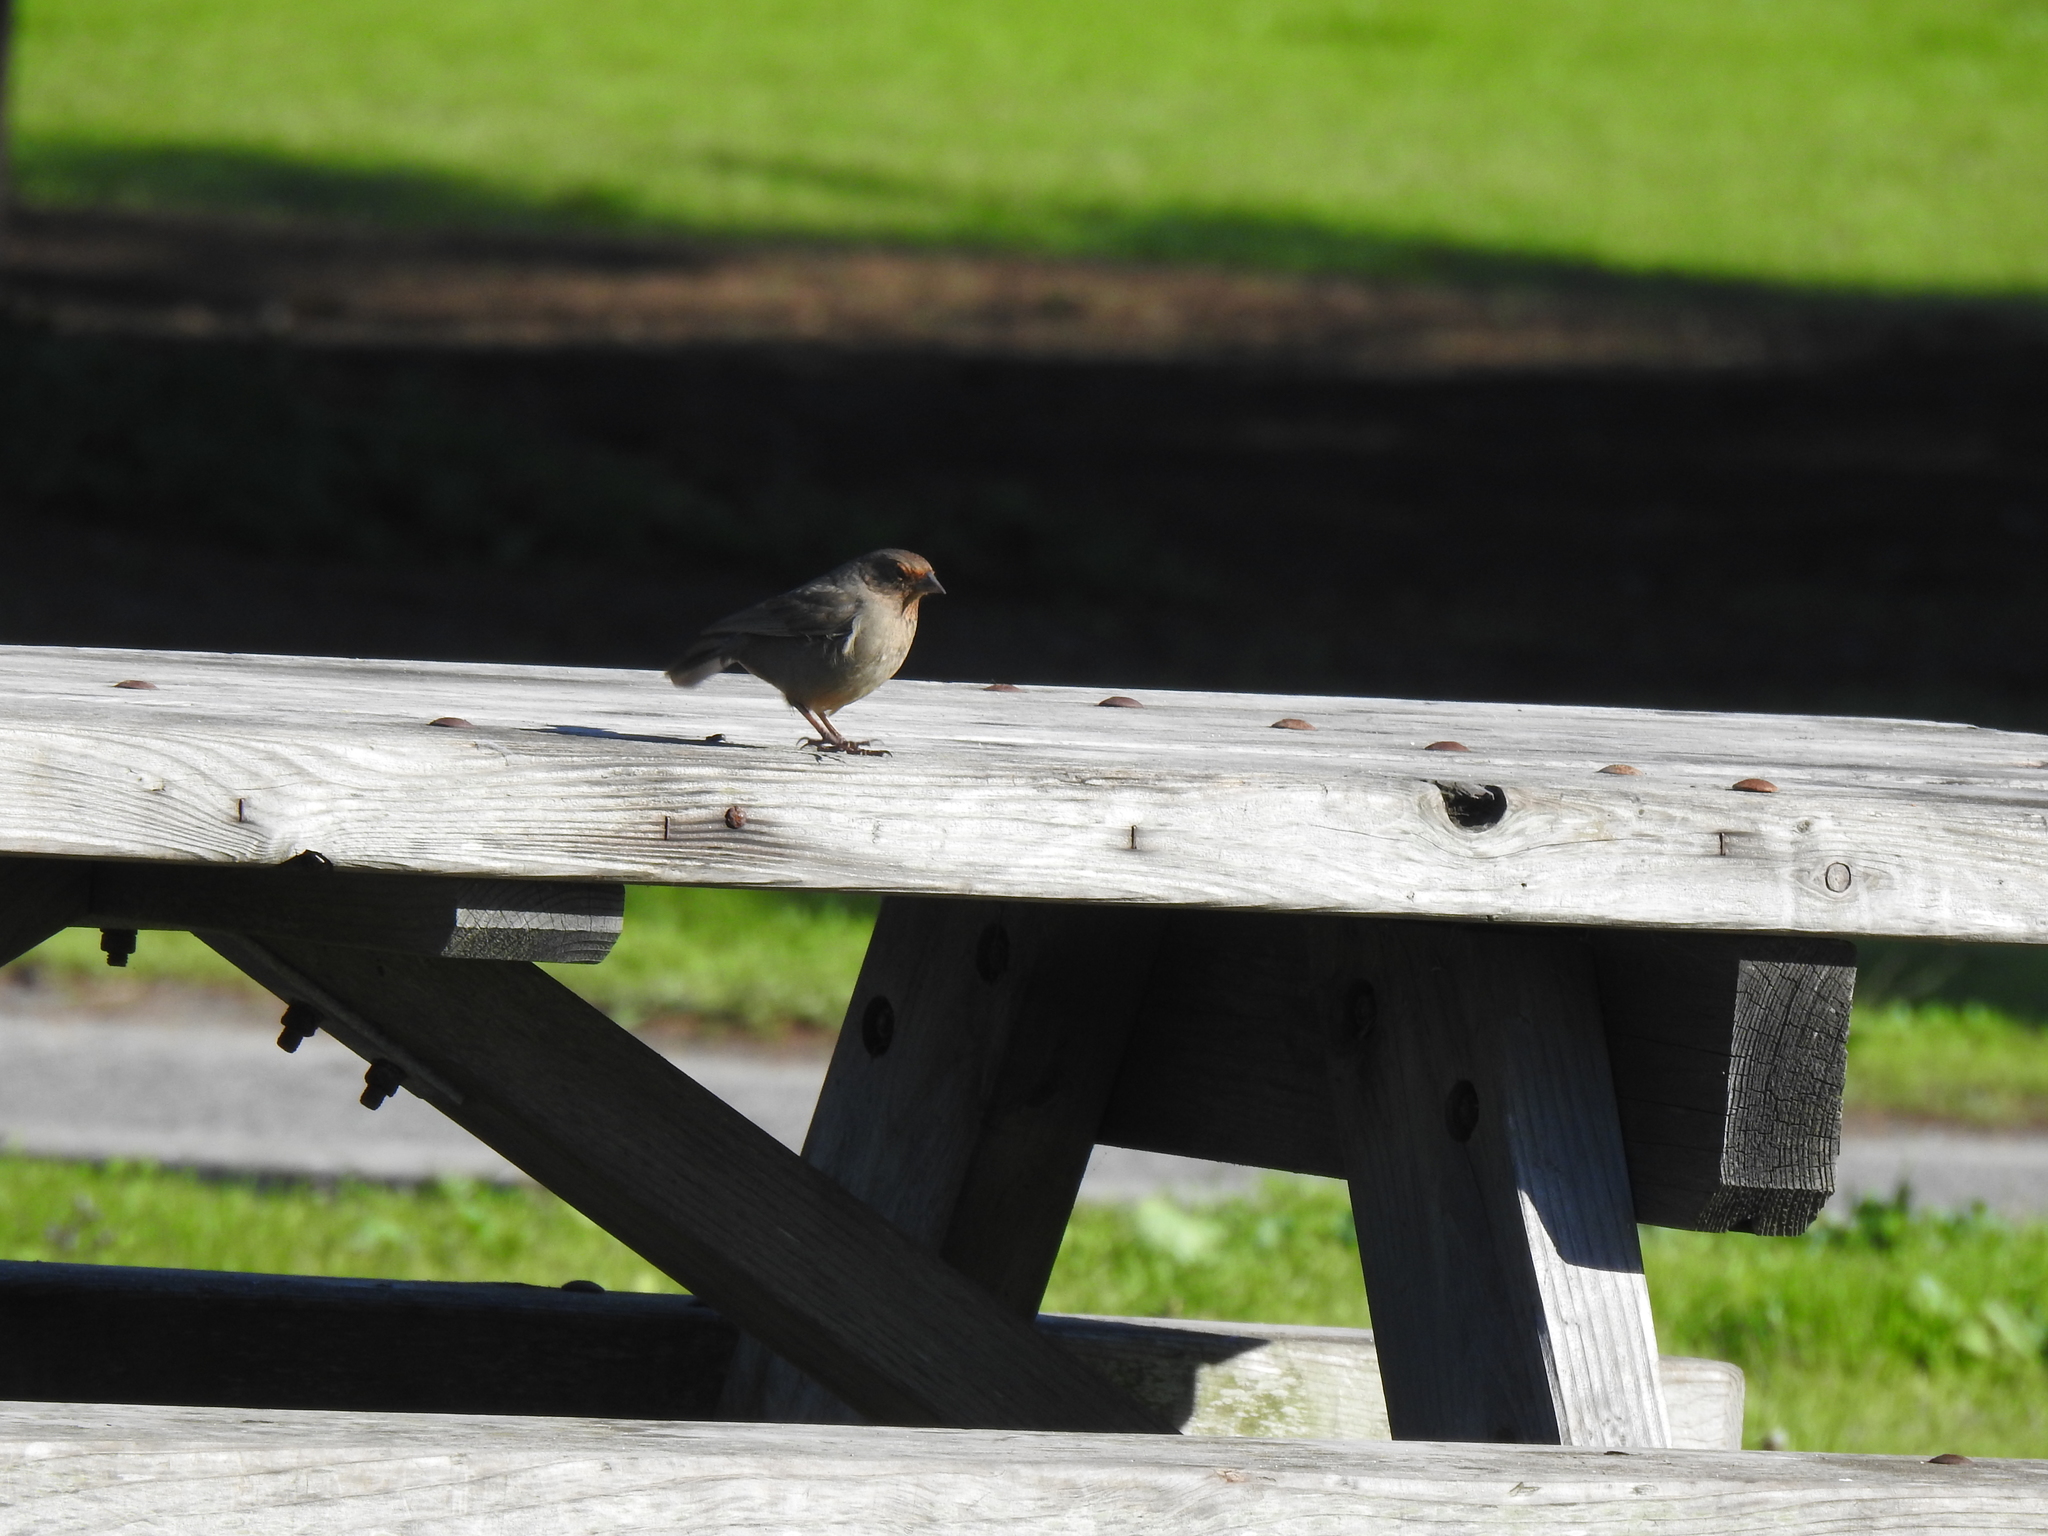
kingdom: Animalia
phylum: Chordata
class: Aves
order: Passeriformes
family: Passerellidae
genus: Melozone
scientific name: Melozone crissalis
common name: California towhee
